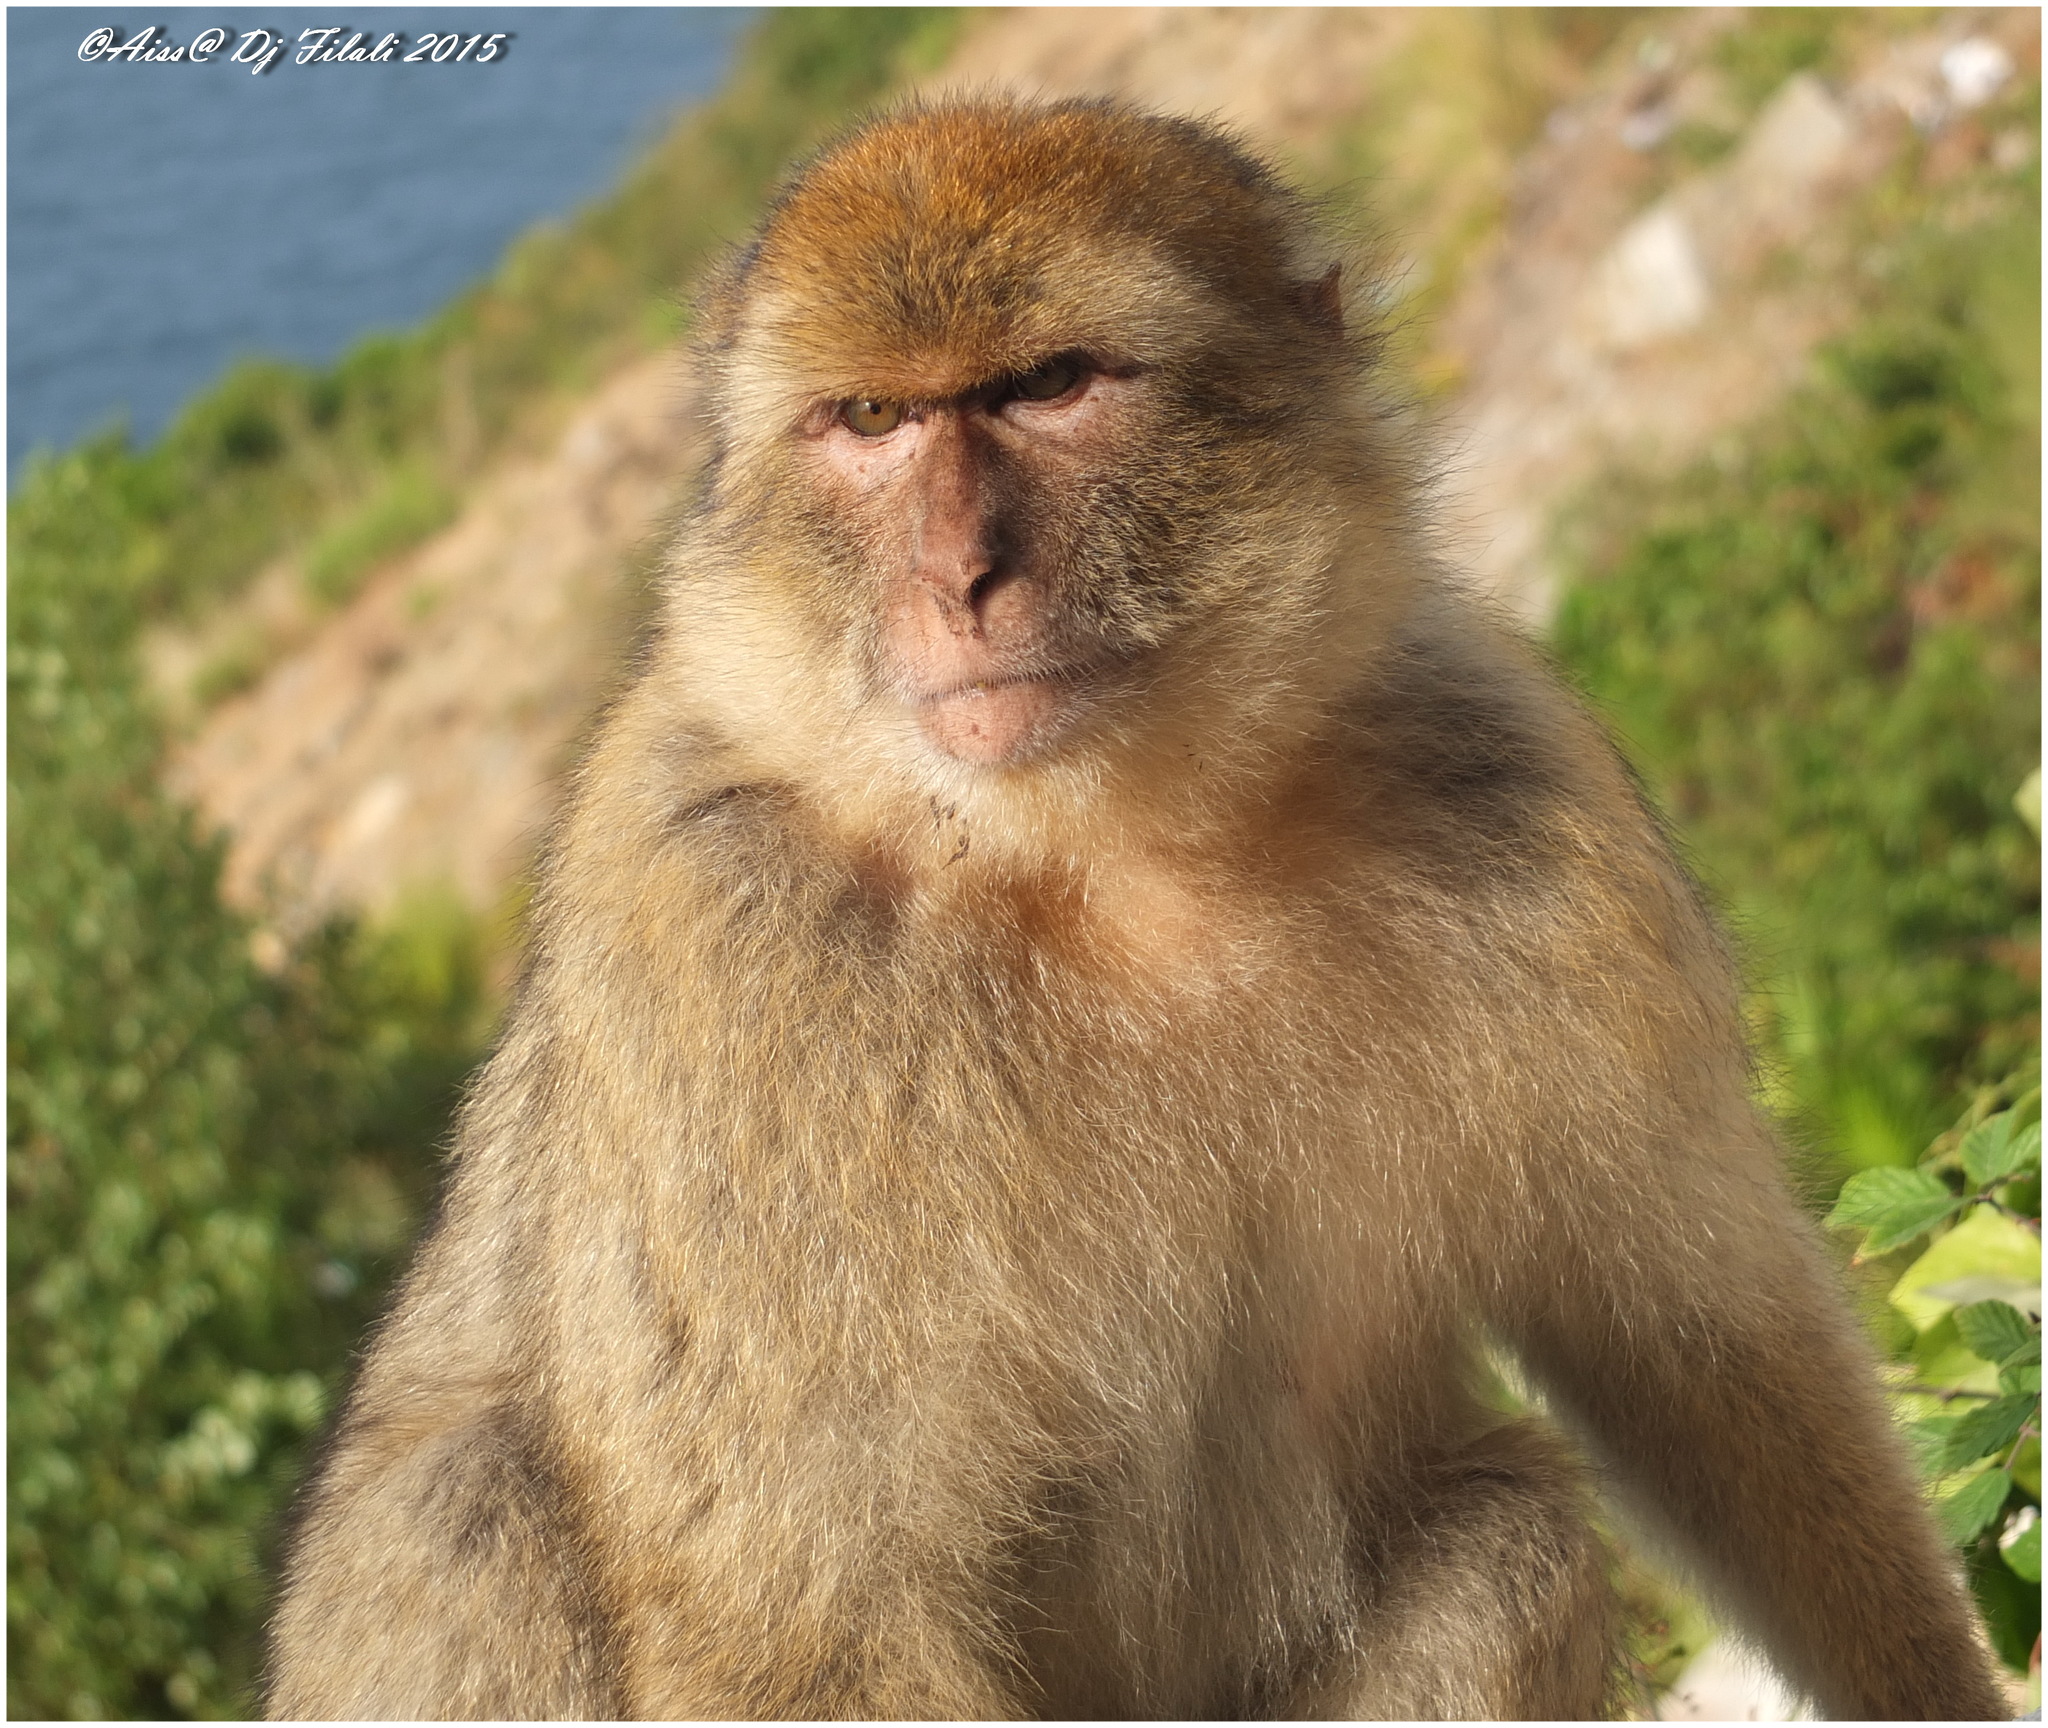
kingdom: Animalia
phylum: Chordata
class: Mammalia
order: Primates
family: Cercopithecidae
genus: Macaca
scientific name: Macaca sylvanus
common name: Barbary macaque
